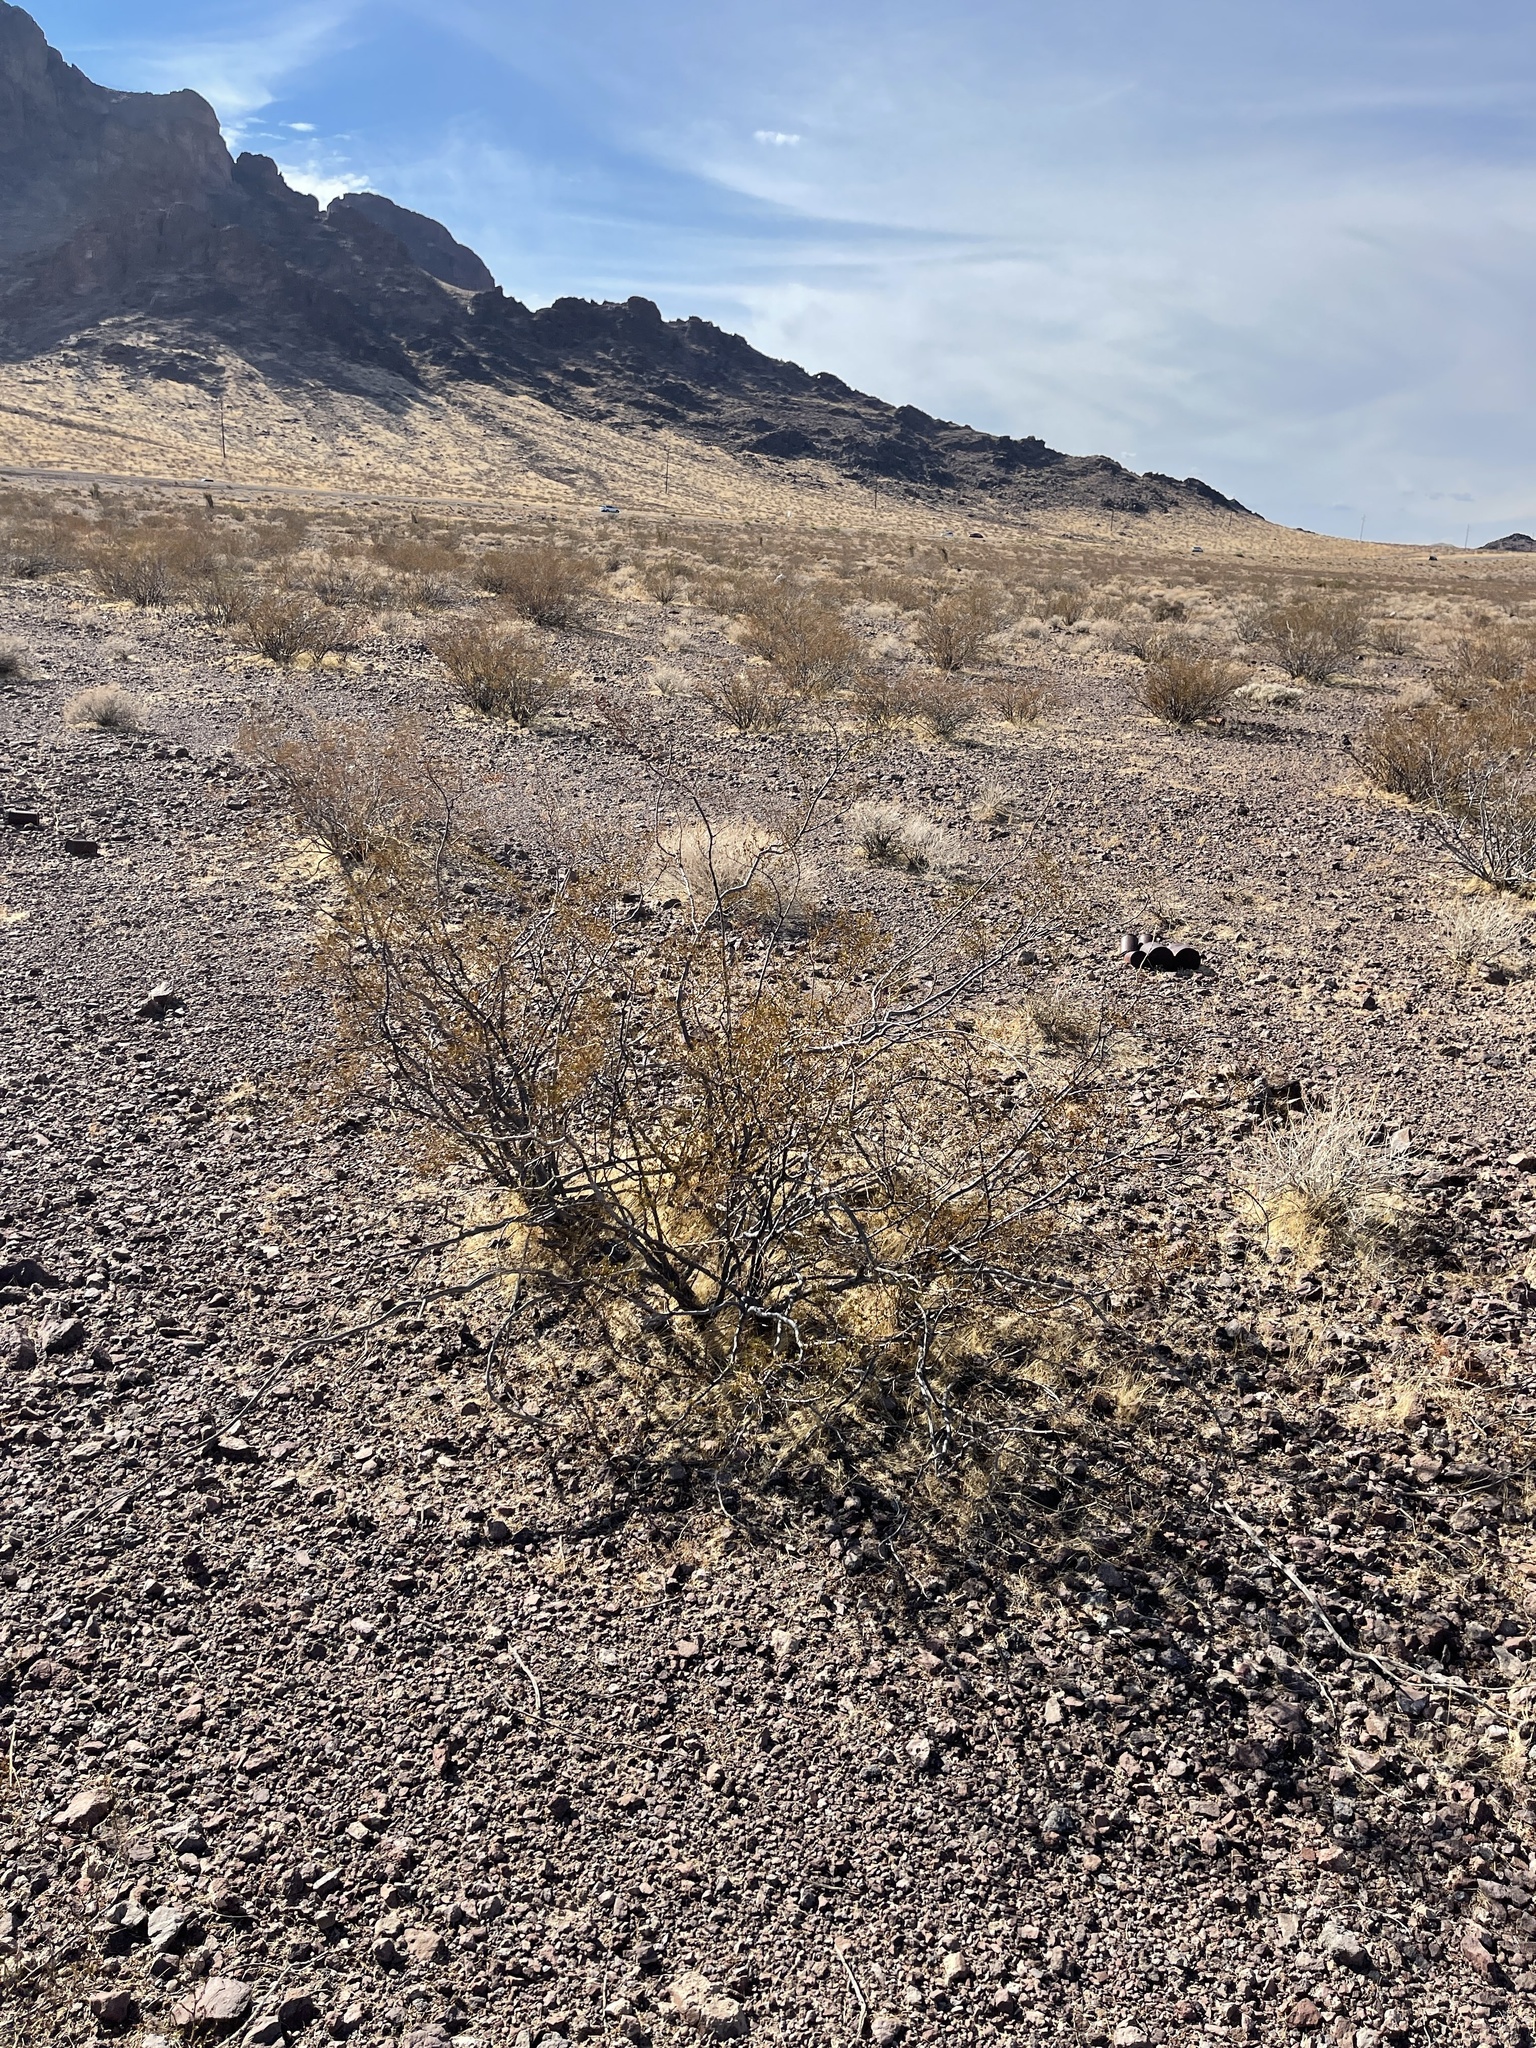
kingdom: Plantae
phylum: Tracheophyta
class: Magnoliopsida
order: Zygophyllales
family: Zygophyllaceae
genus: Larrea
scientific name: Larrea tridentata
